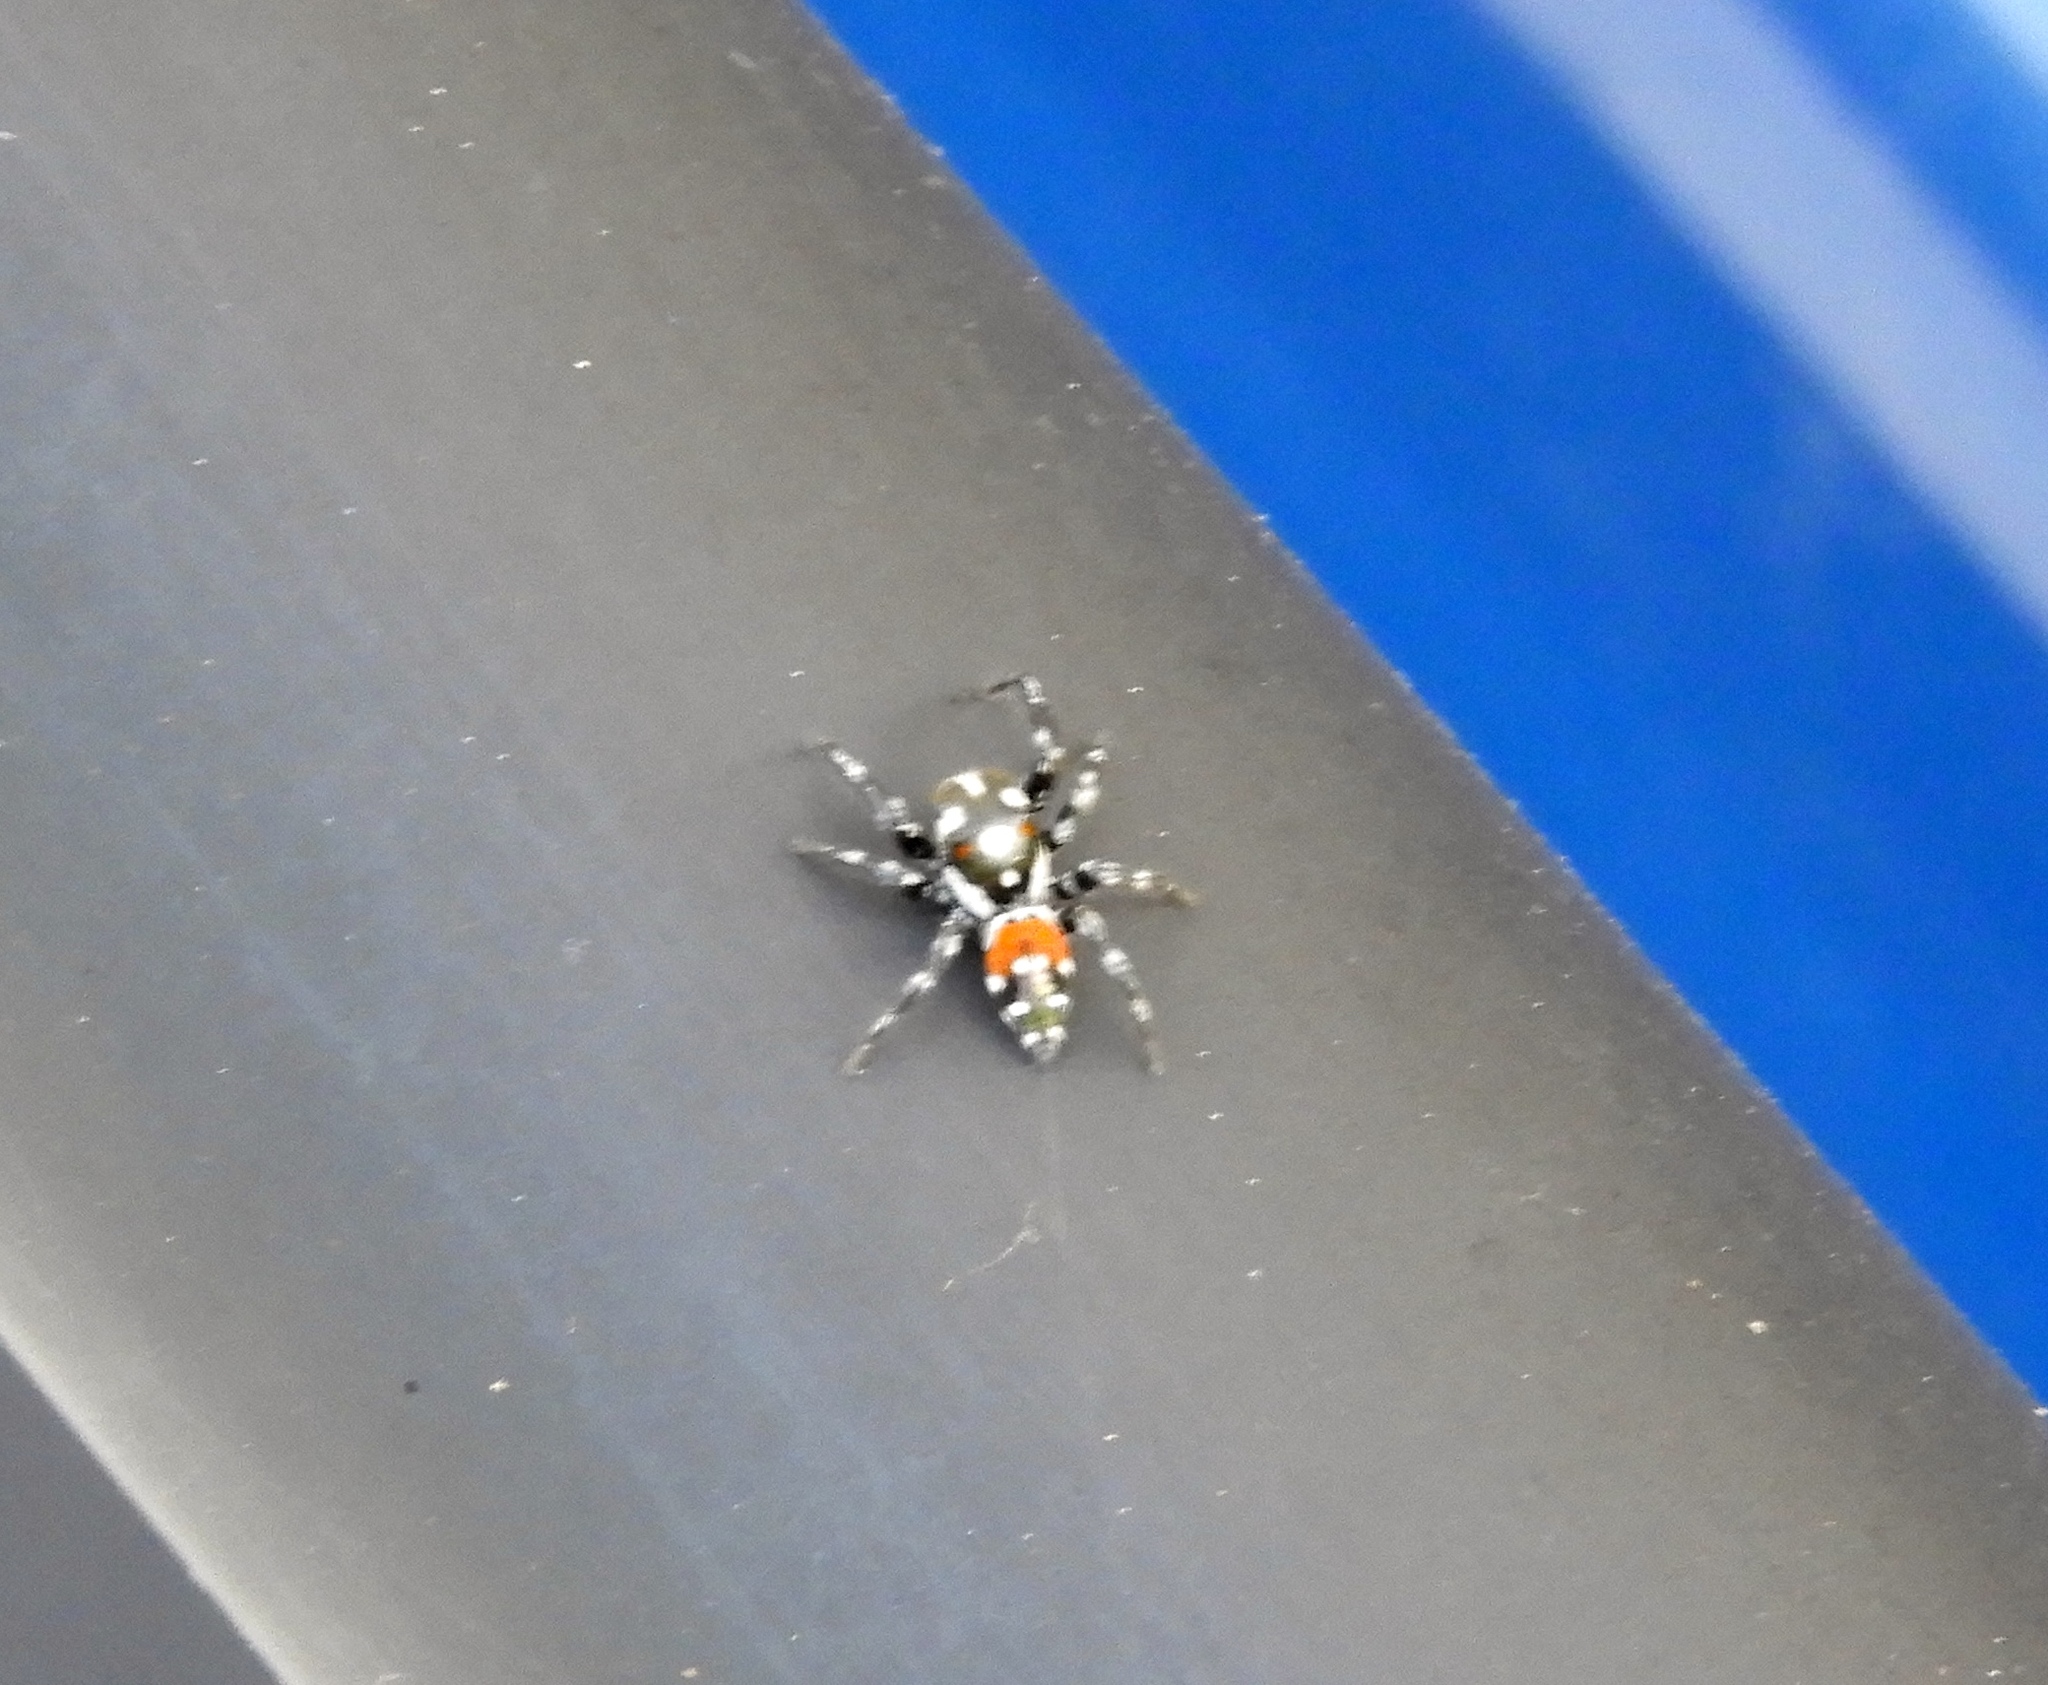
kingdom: Animalia
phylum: Arthropoda
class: Arachnida
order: Araneae
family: Salticidae
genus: Nycerella
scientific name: Nycerella delecta
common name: Jumping spiders
